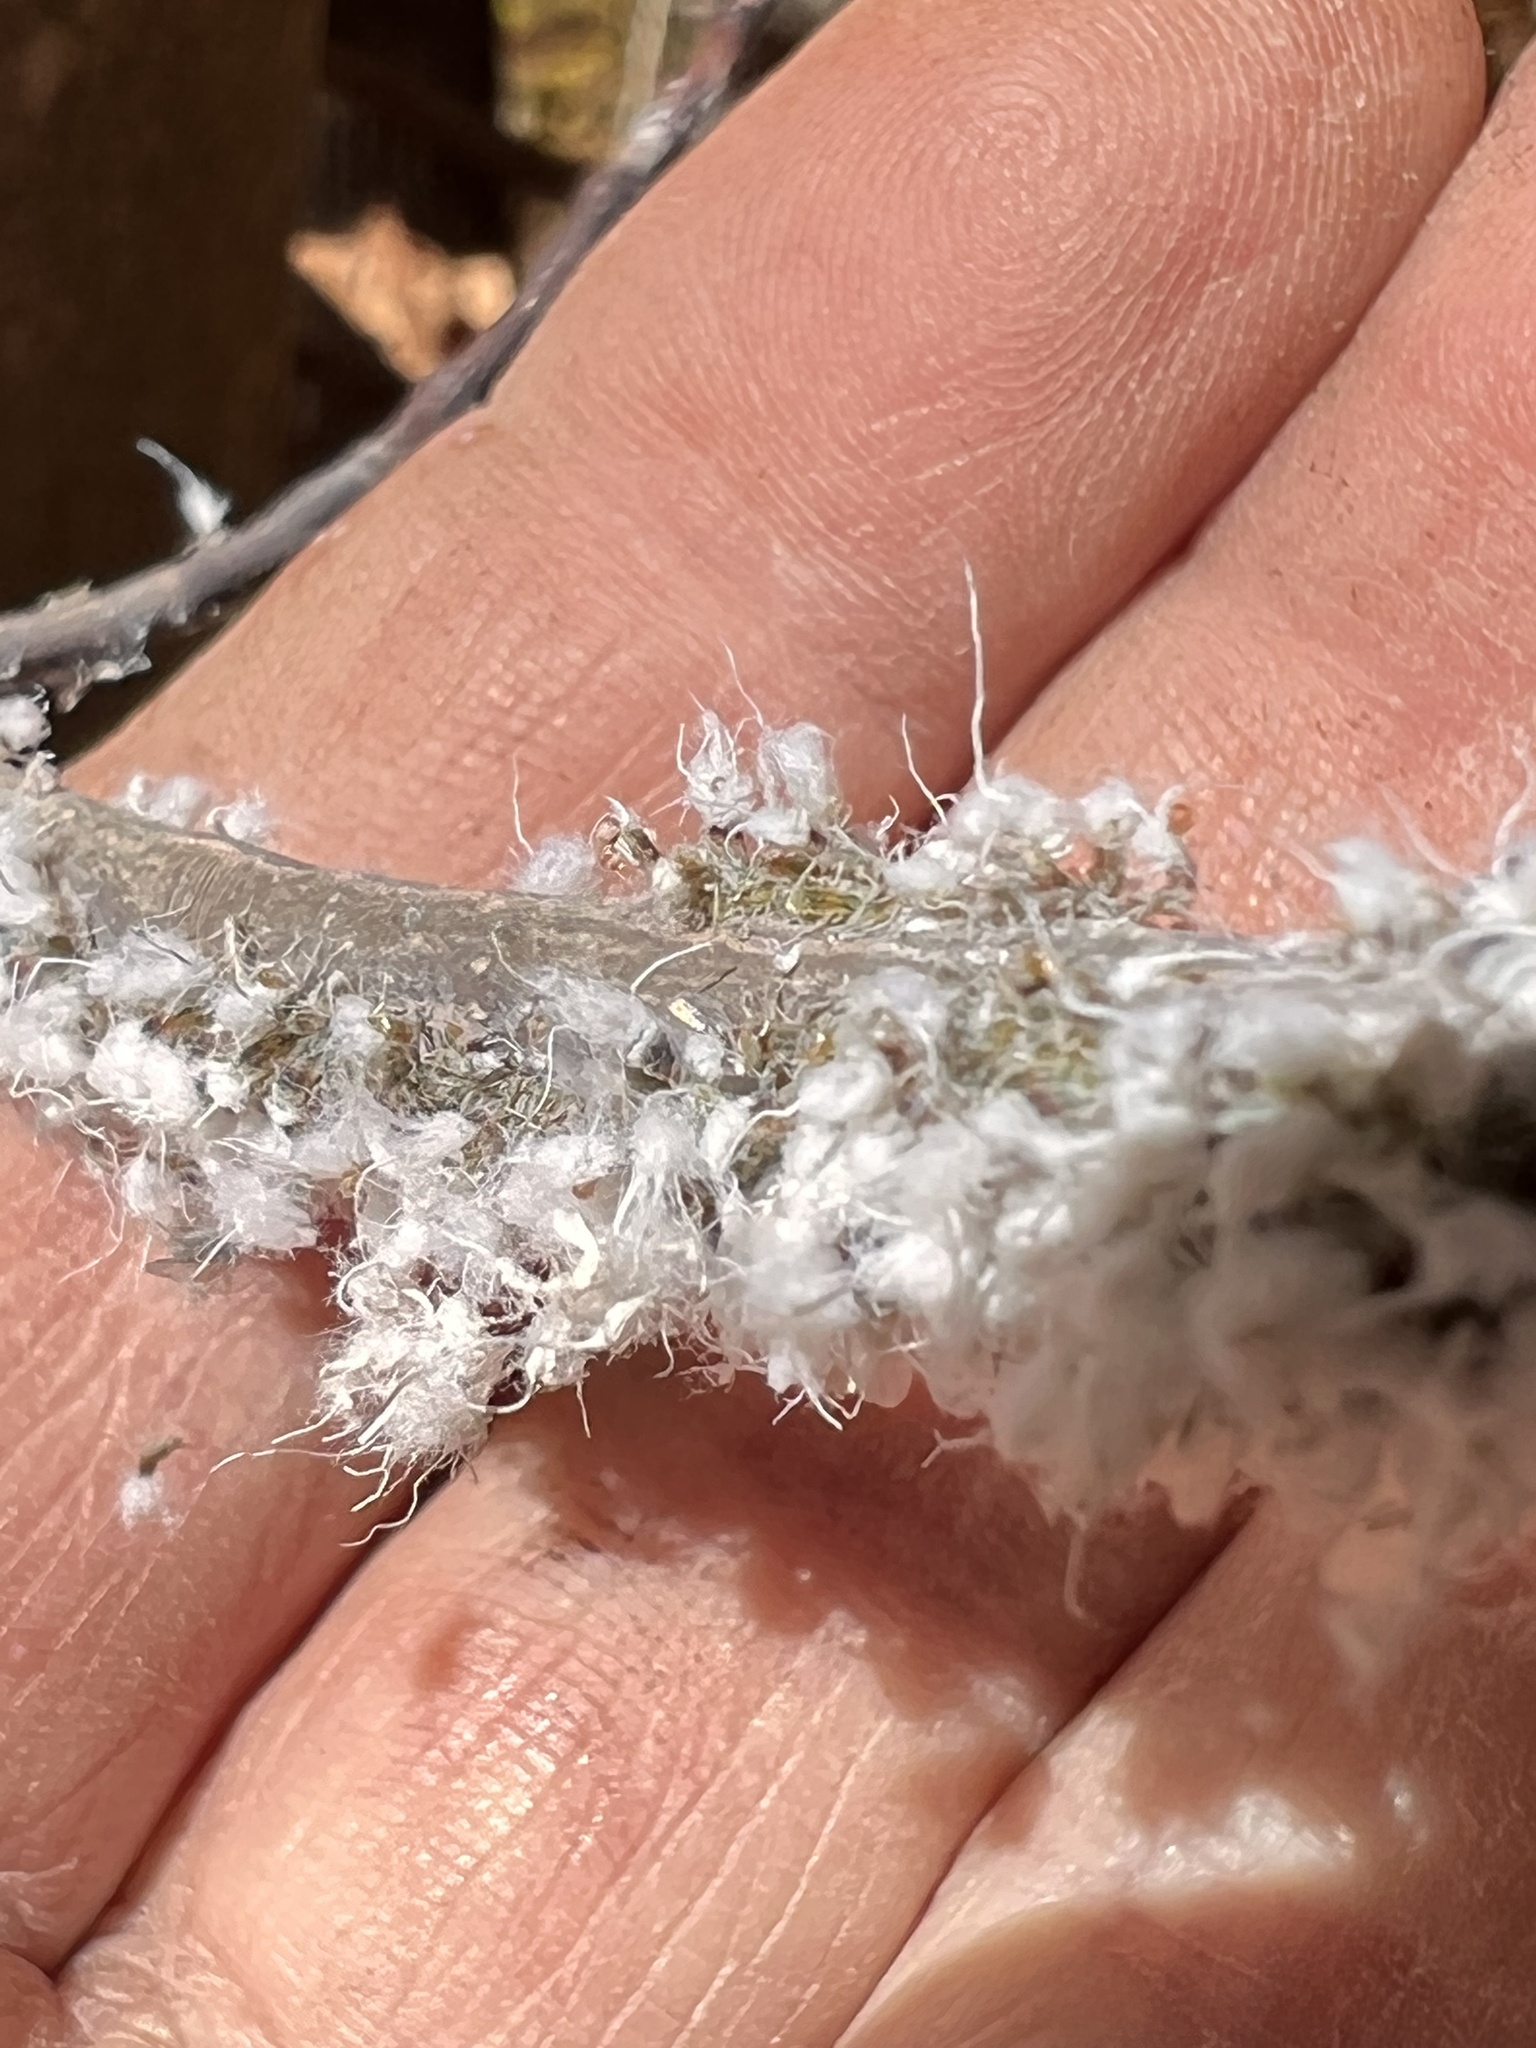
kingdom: Animalia
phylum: Arthropoda
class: Insecta
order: Hemiptera
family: Aphididae
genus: Grylloprociphilus
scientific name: Grylloprociphilus imbricator
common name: Beech blight aphid
